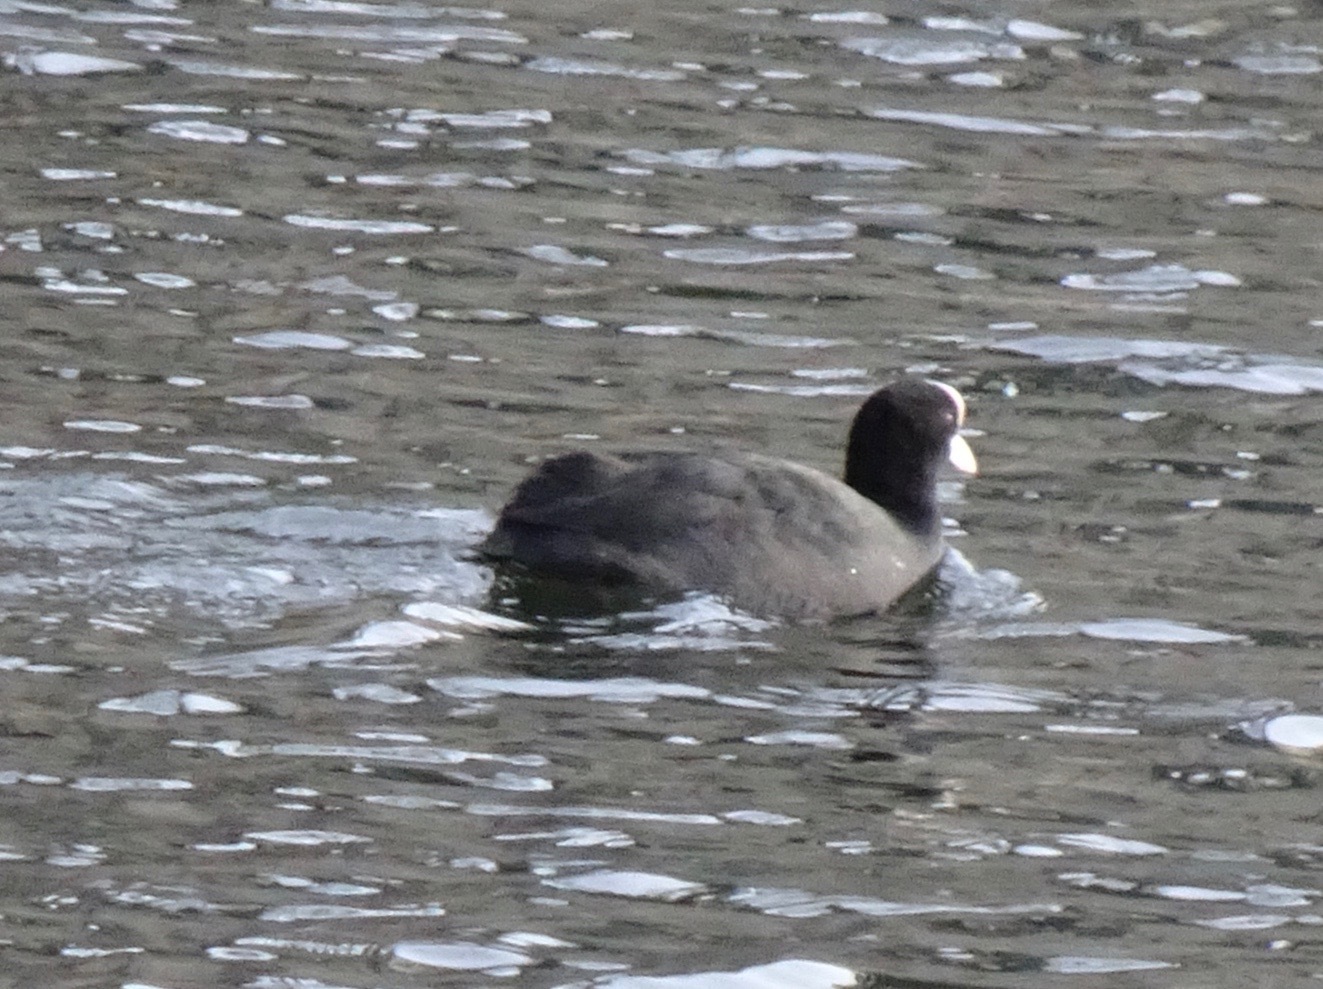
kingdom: Animalia
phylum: Chordata
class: Aves
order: Gruiformes
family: Rallidae
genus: Fulica
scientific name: Fulica atra
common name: Eurasian coot
